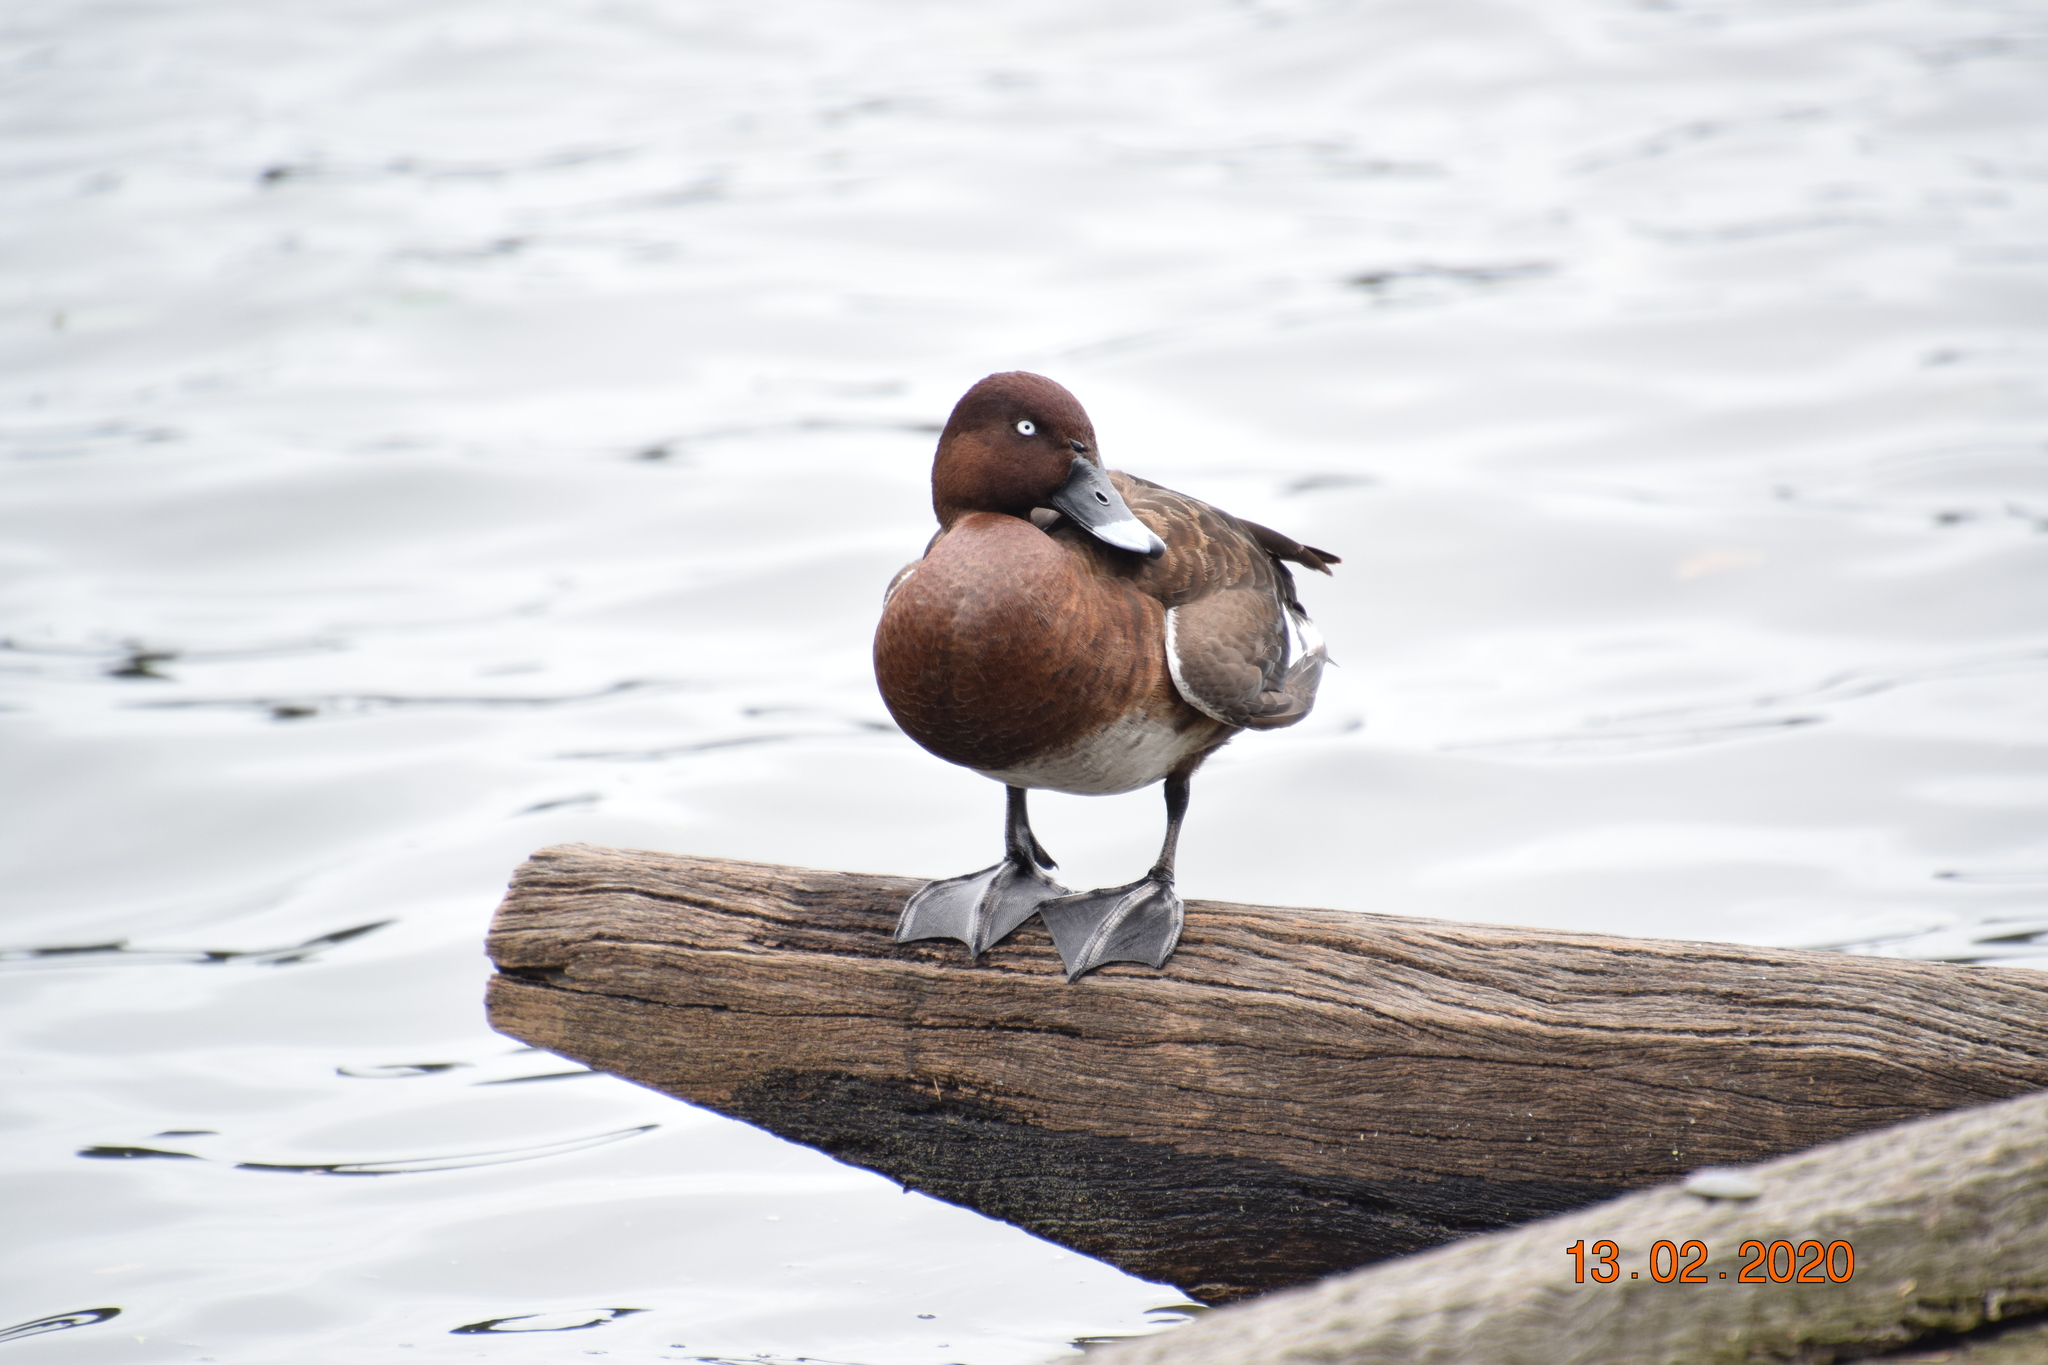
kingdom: Animalia
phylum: Chordata
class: Aves
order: Anseriformes
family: Anatidae
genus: Aythya
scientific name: Aythya australis
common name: Hardhead
